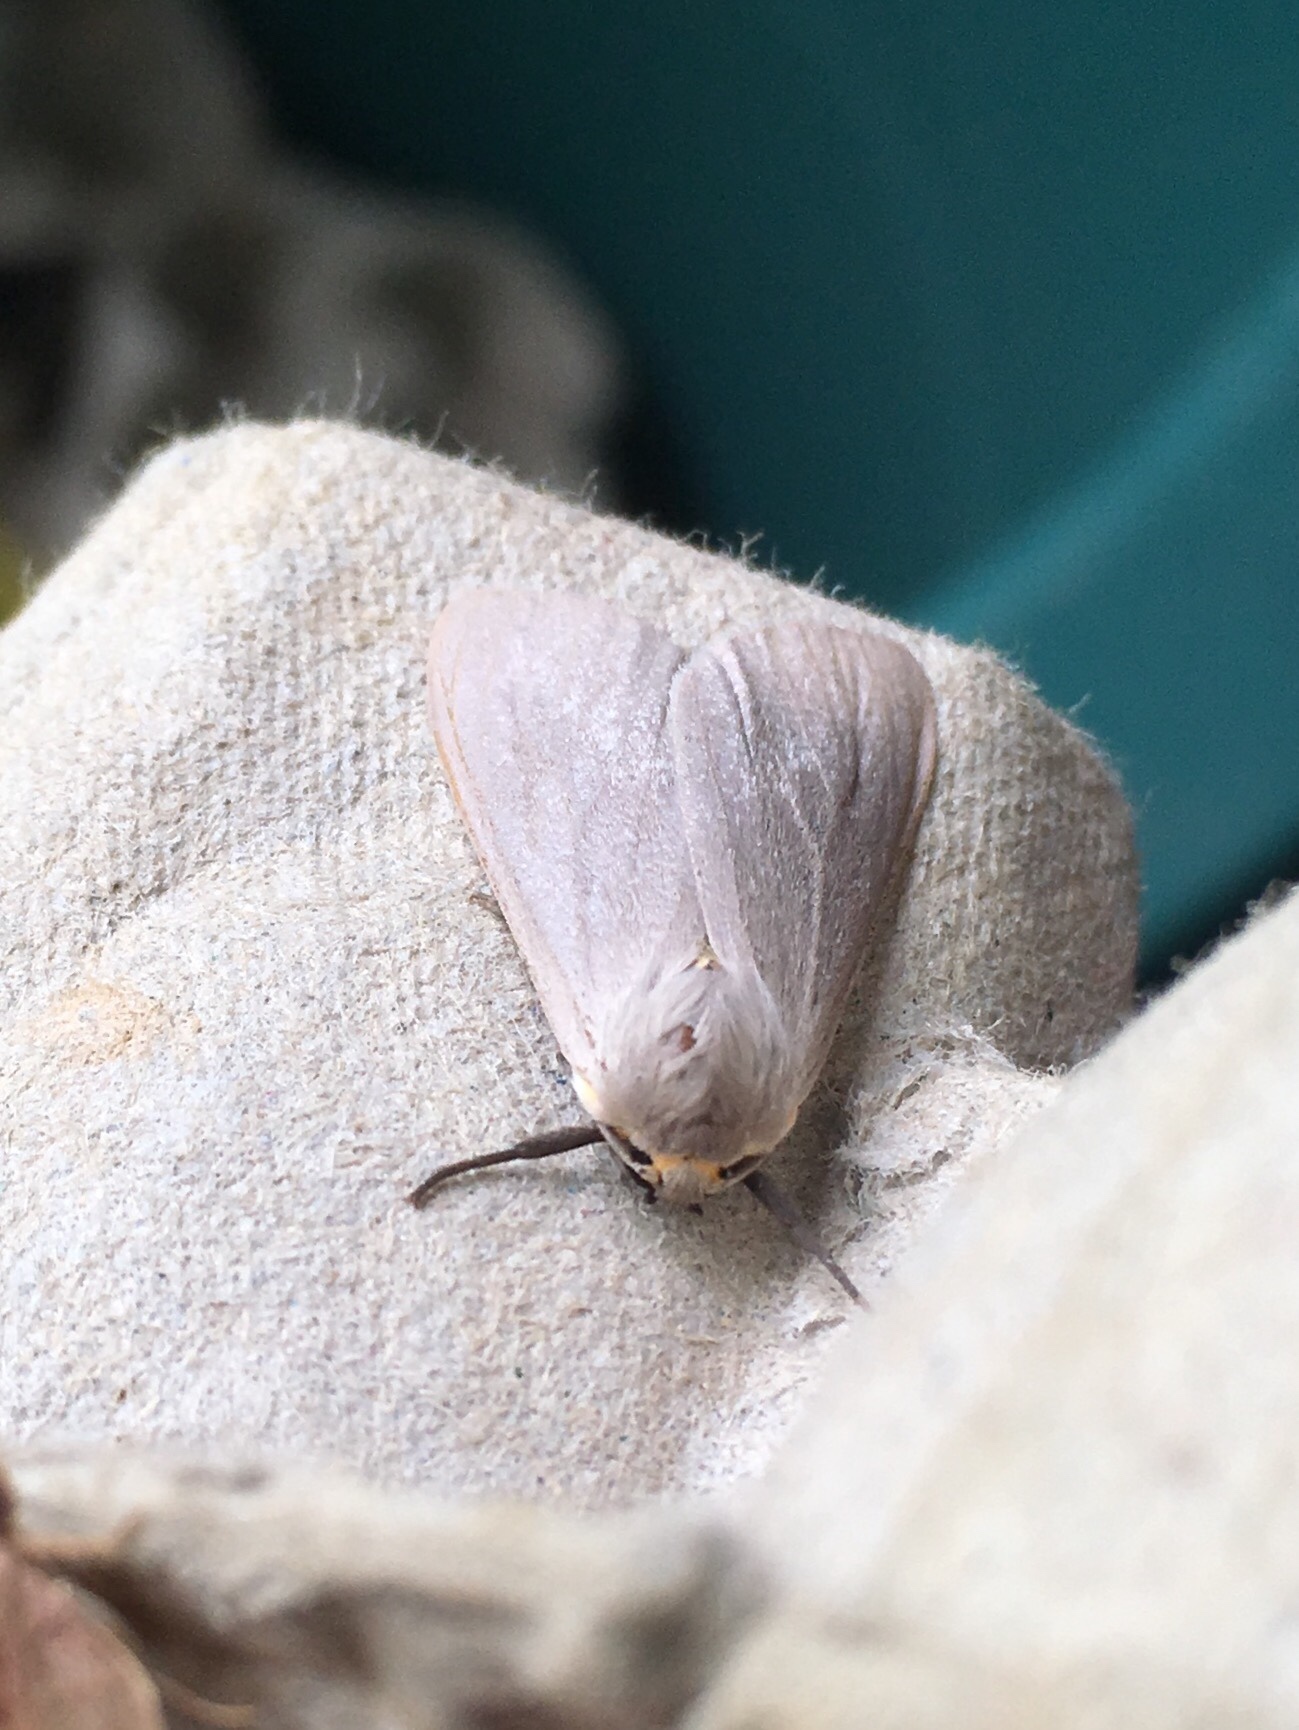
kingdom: Animalia
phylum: Arthropoda
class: Insecta
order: Lepidoptera
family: Erebidae
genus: Euchaetes
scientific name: Euchaetes egle
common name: Milkweed tussock moth
